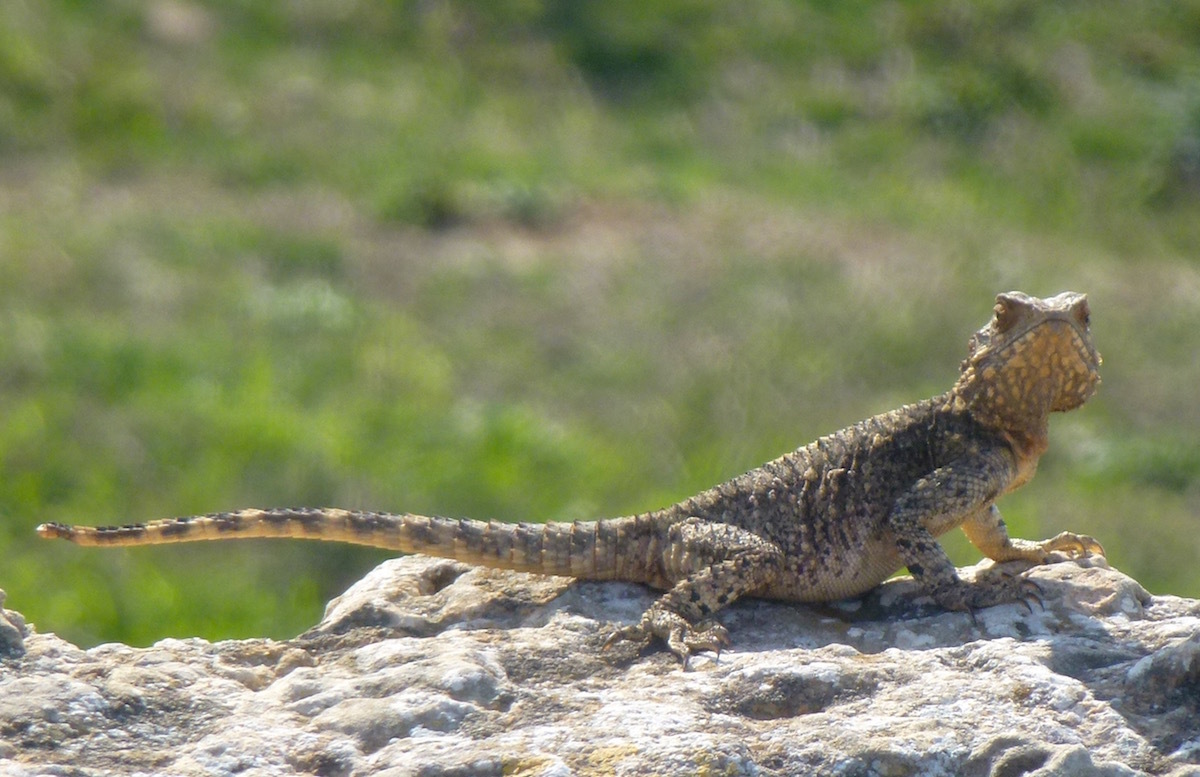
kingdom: Animalia
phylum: Chordata
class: Squamata
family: Agamidae
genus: Laudakia
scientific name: Laudakia vulgaris
